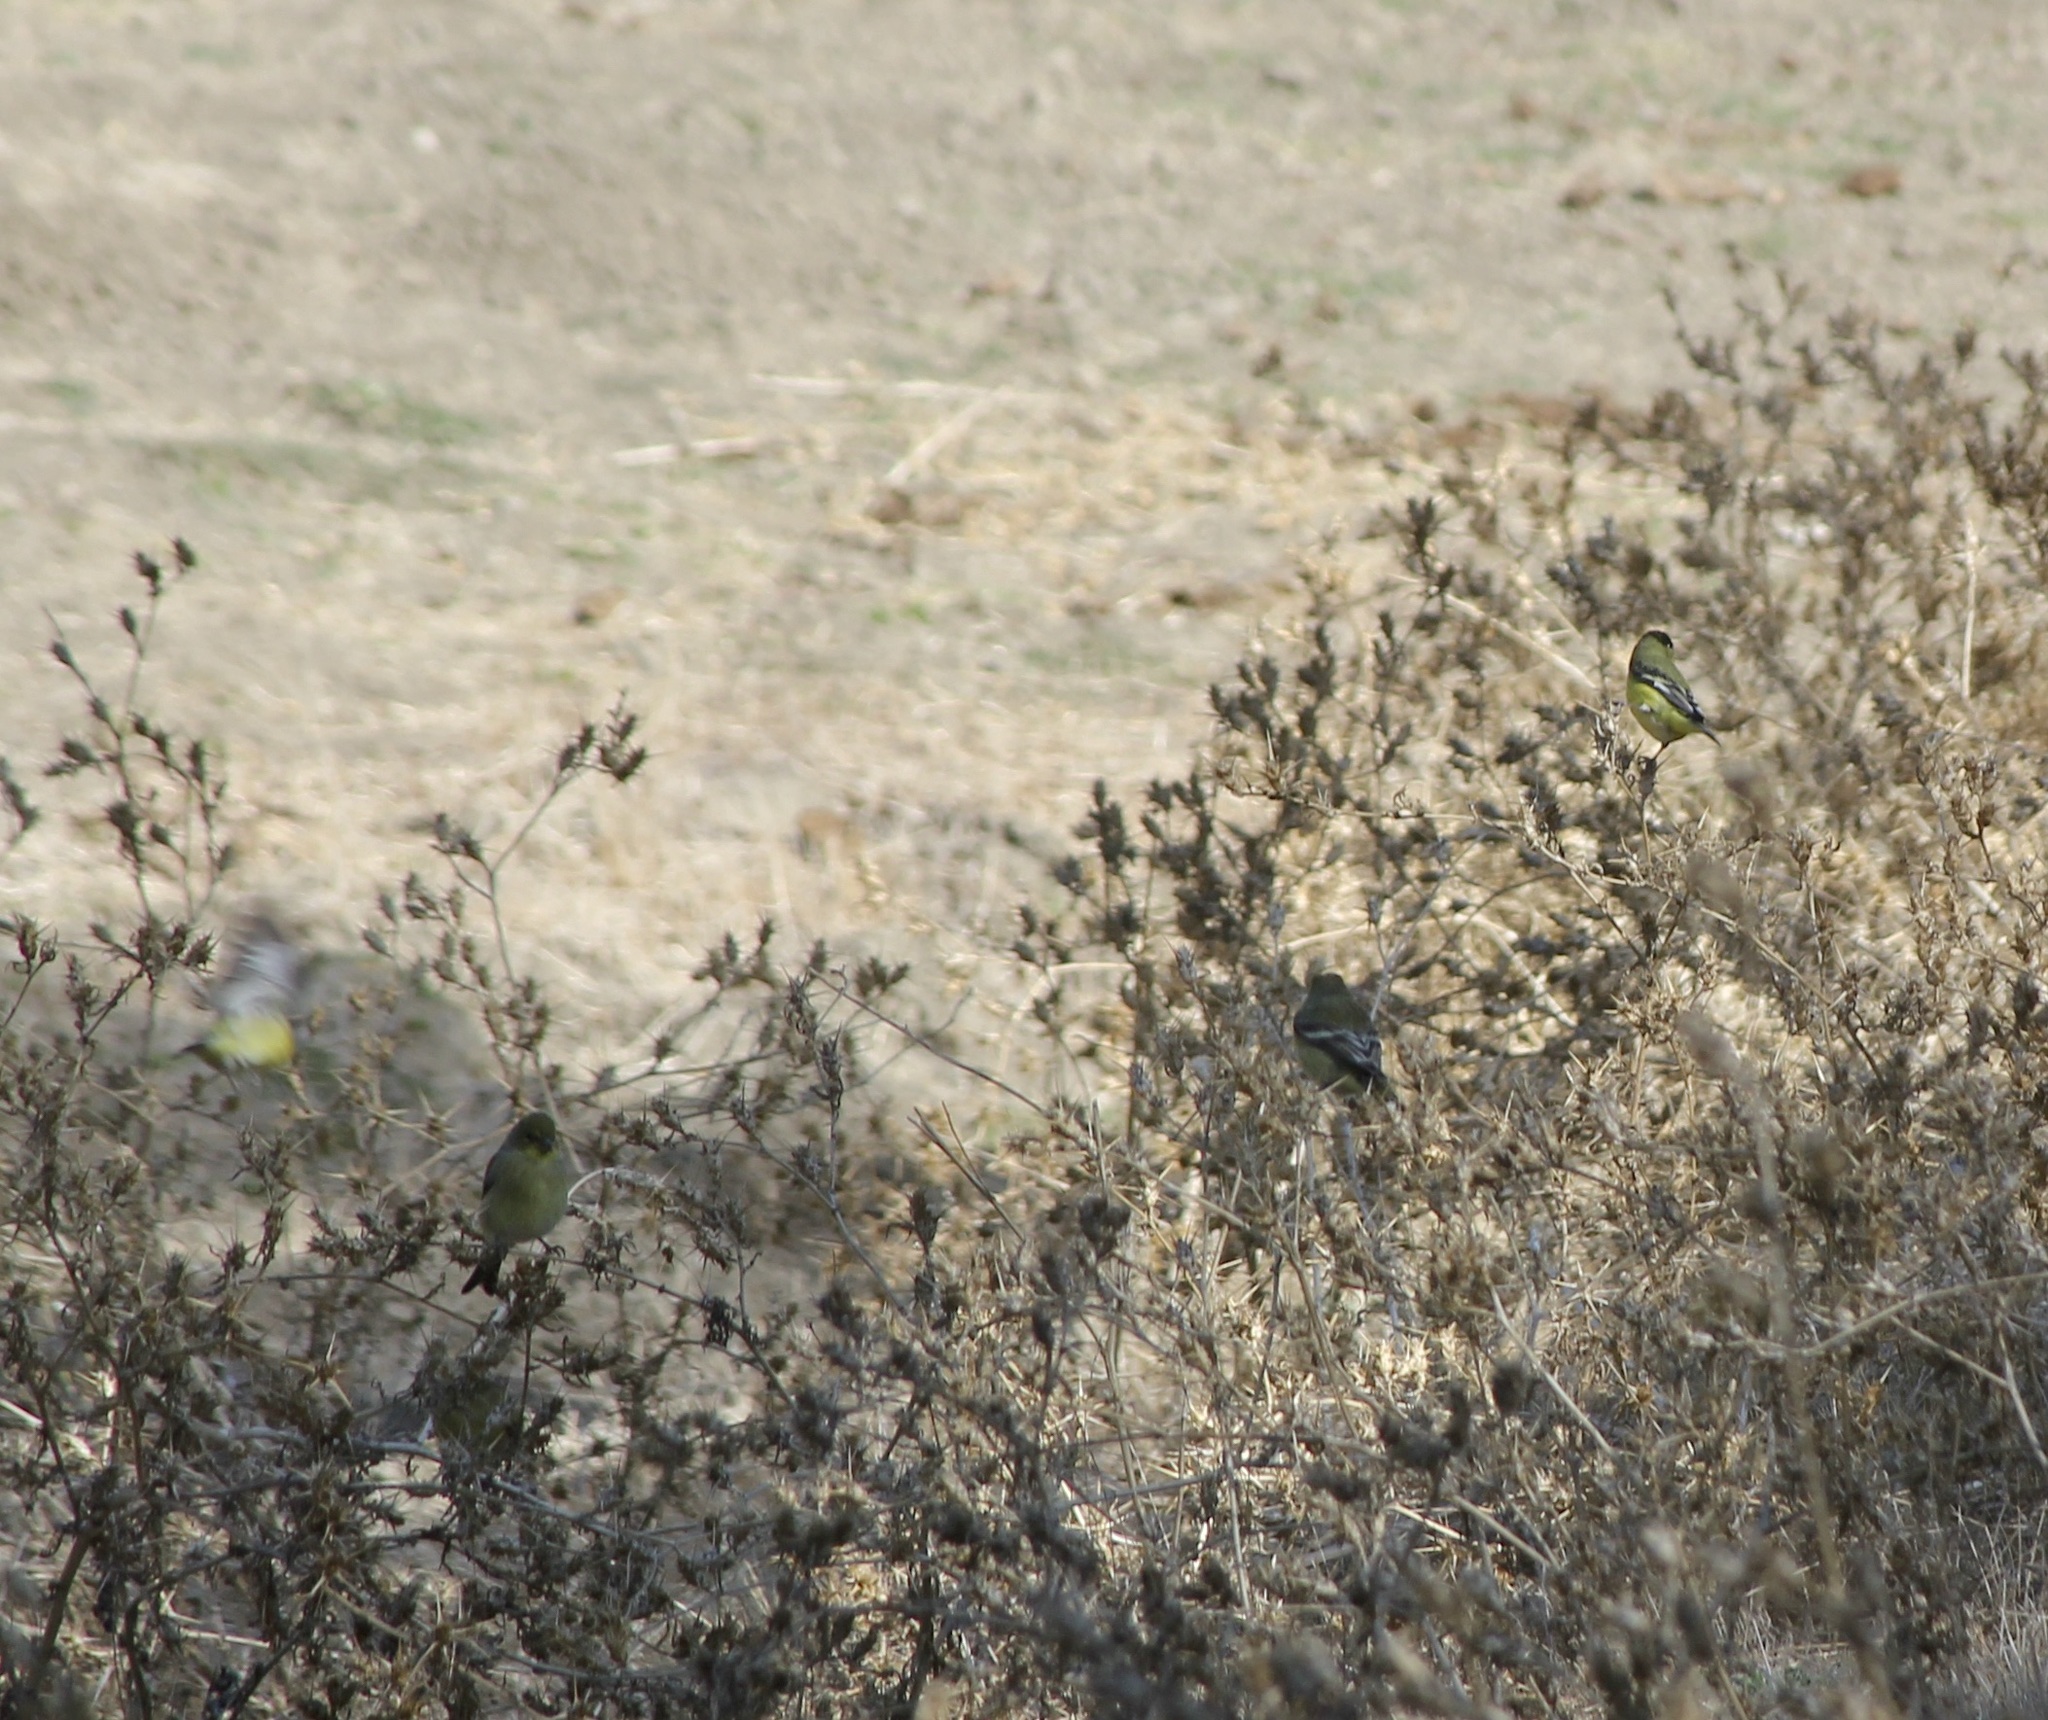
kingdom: Animalia
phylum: Chordata
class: Aves
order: Passeriformes
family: Fringillidae
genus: Spinus
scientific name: Spinus psaltria
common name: Lesser goldfinch
